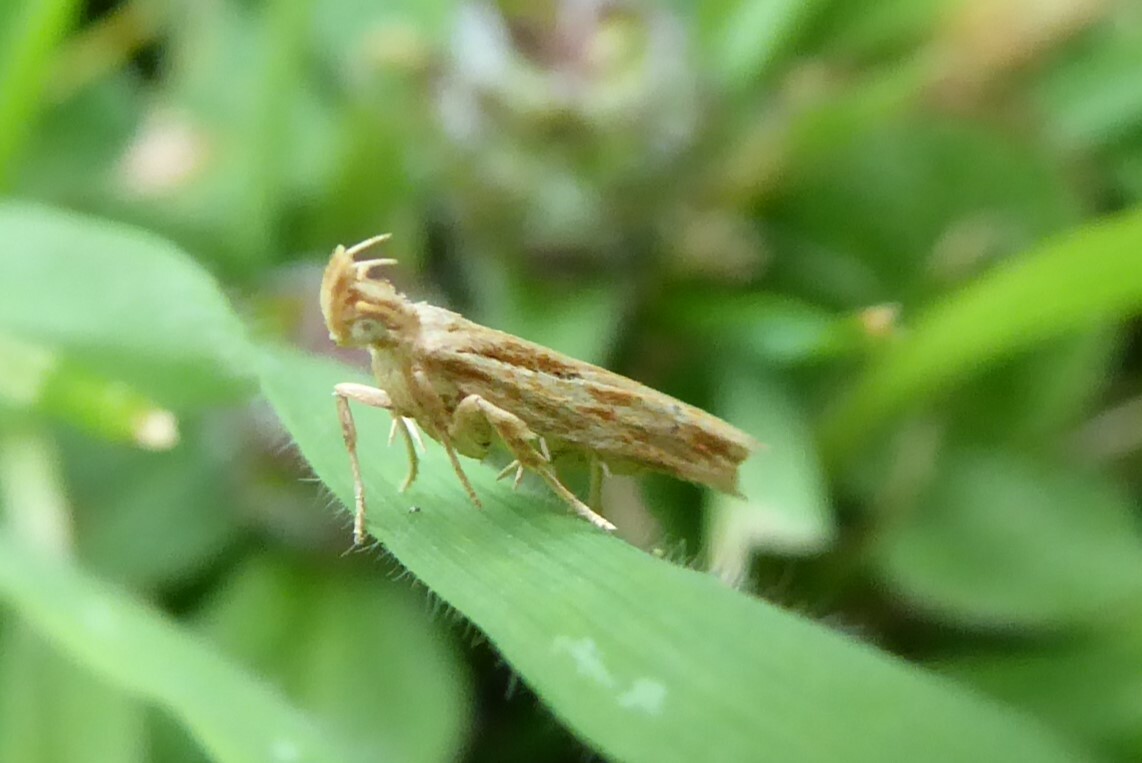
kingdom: Animalia
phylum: Arthropoda
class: Insecta
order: Lepidoptera
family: Depressariidae
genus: Eutorna
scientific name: Eutorna symmorpha
